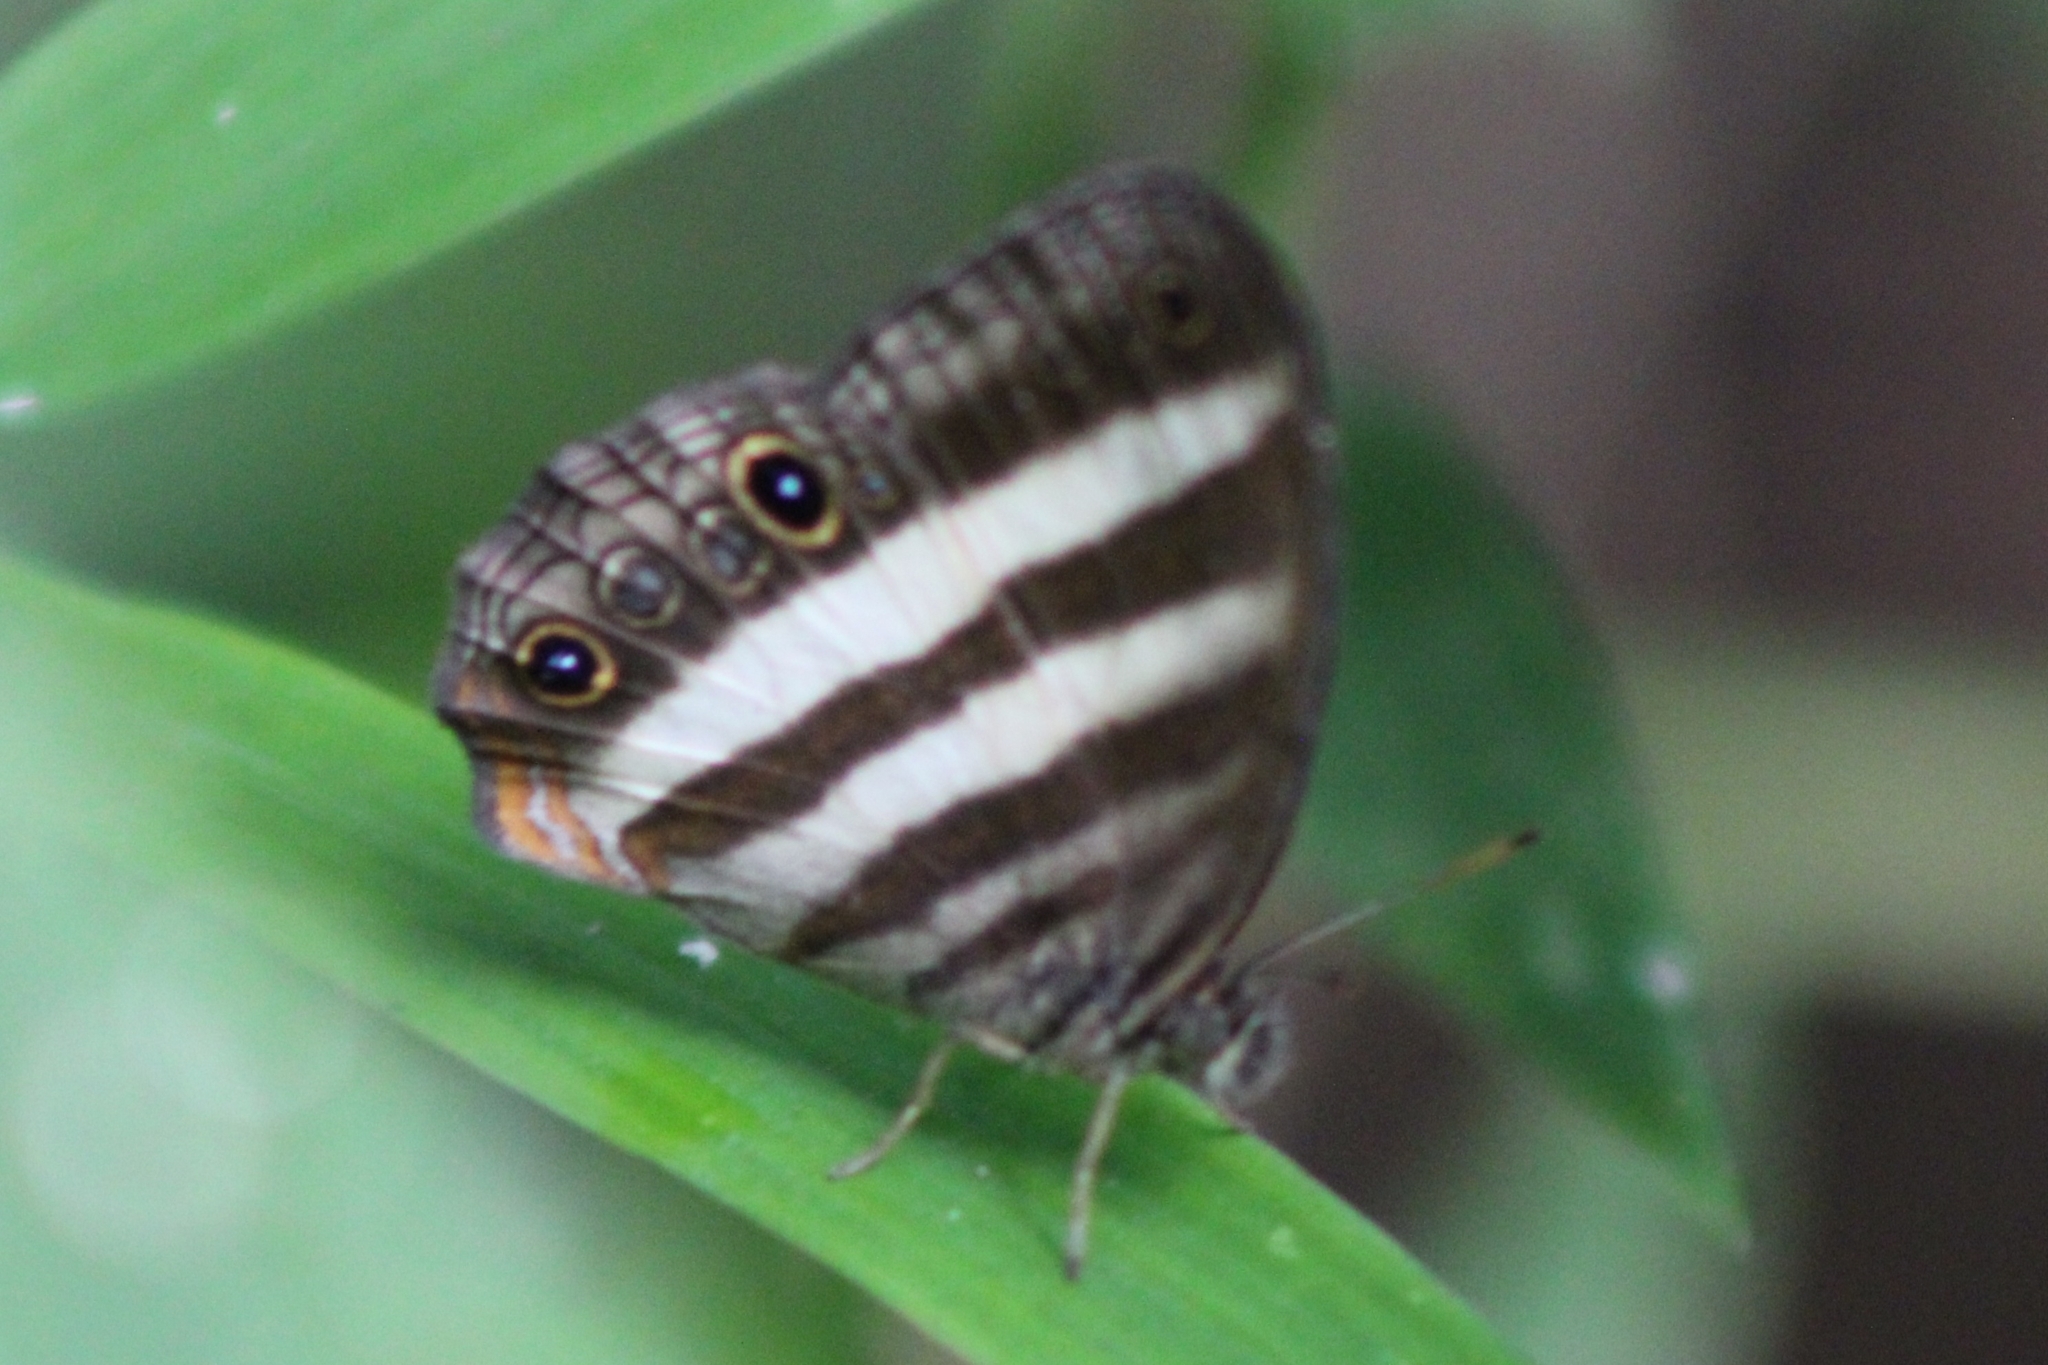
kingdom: Animalia
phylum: Arthropoda
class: Insecta
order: Lepidoptera
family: Nymphalidae
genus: Pareuptychia
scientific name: Pareuptychia hesione
